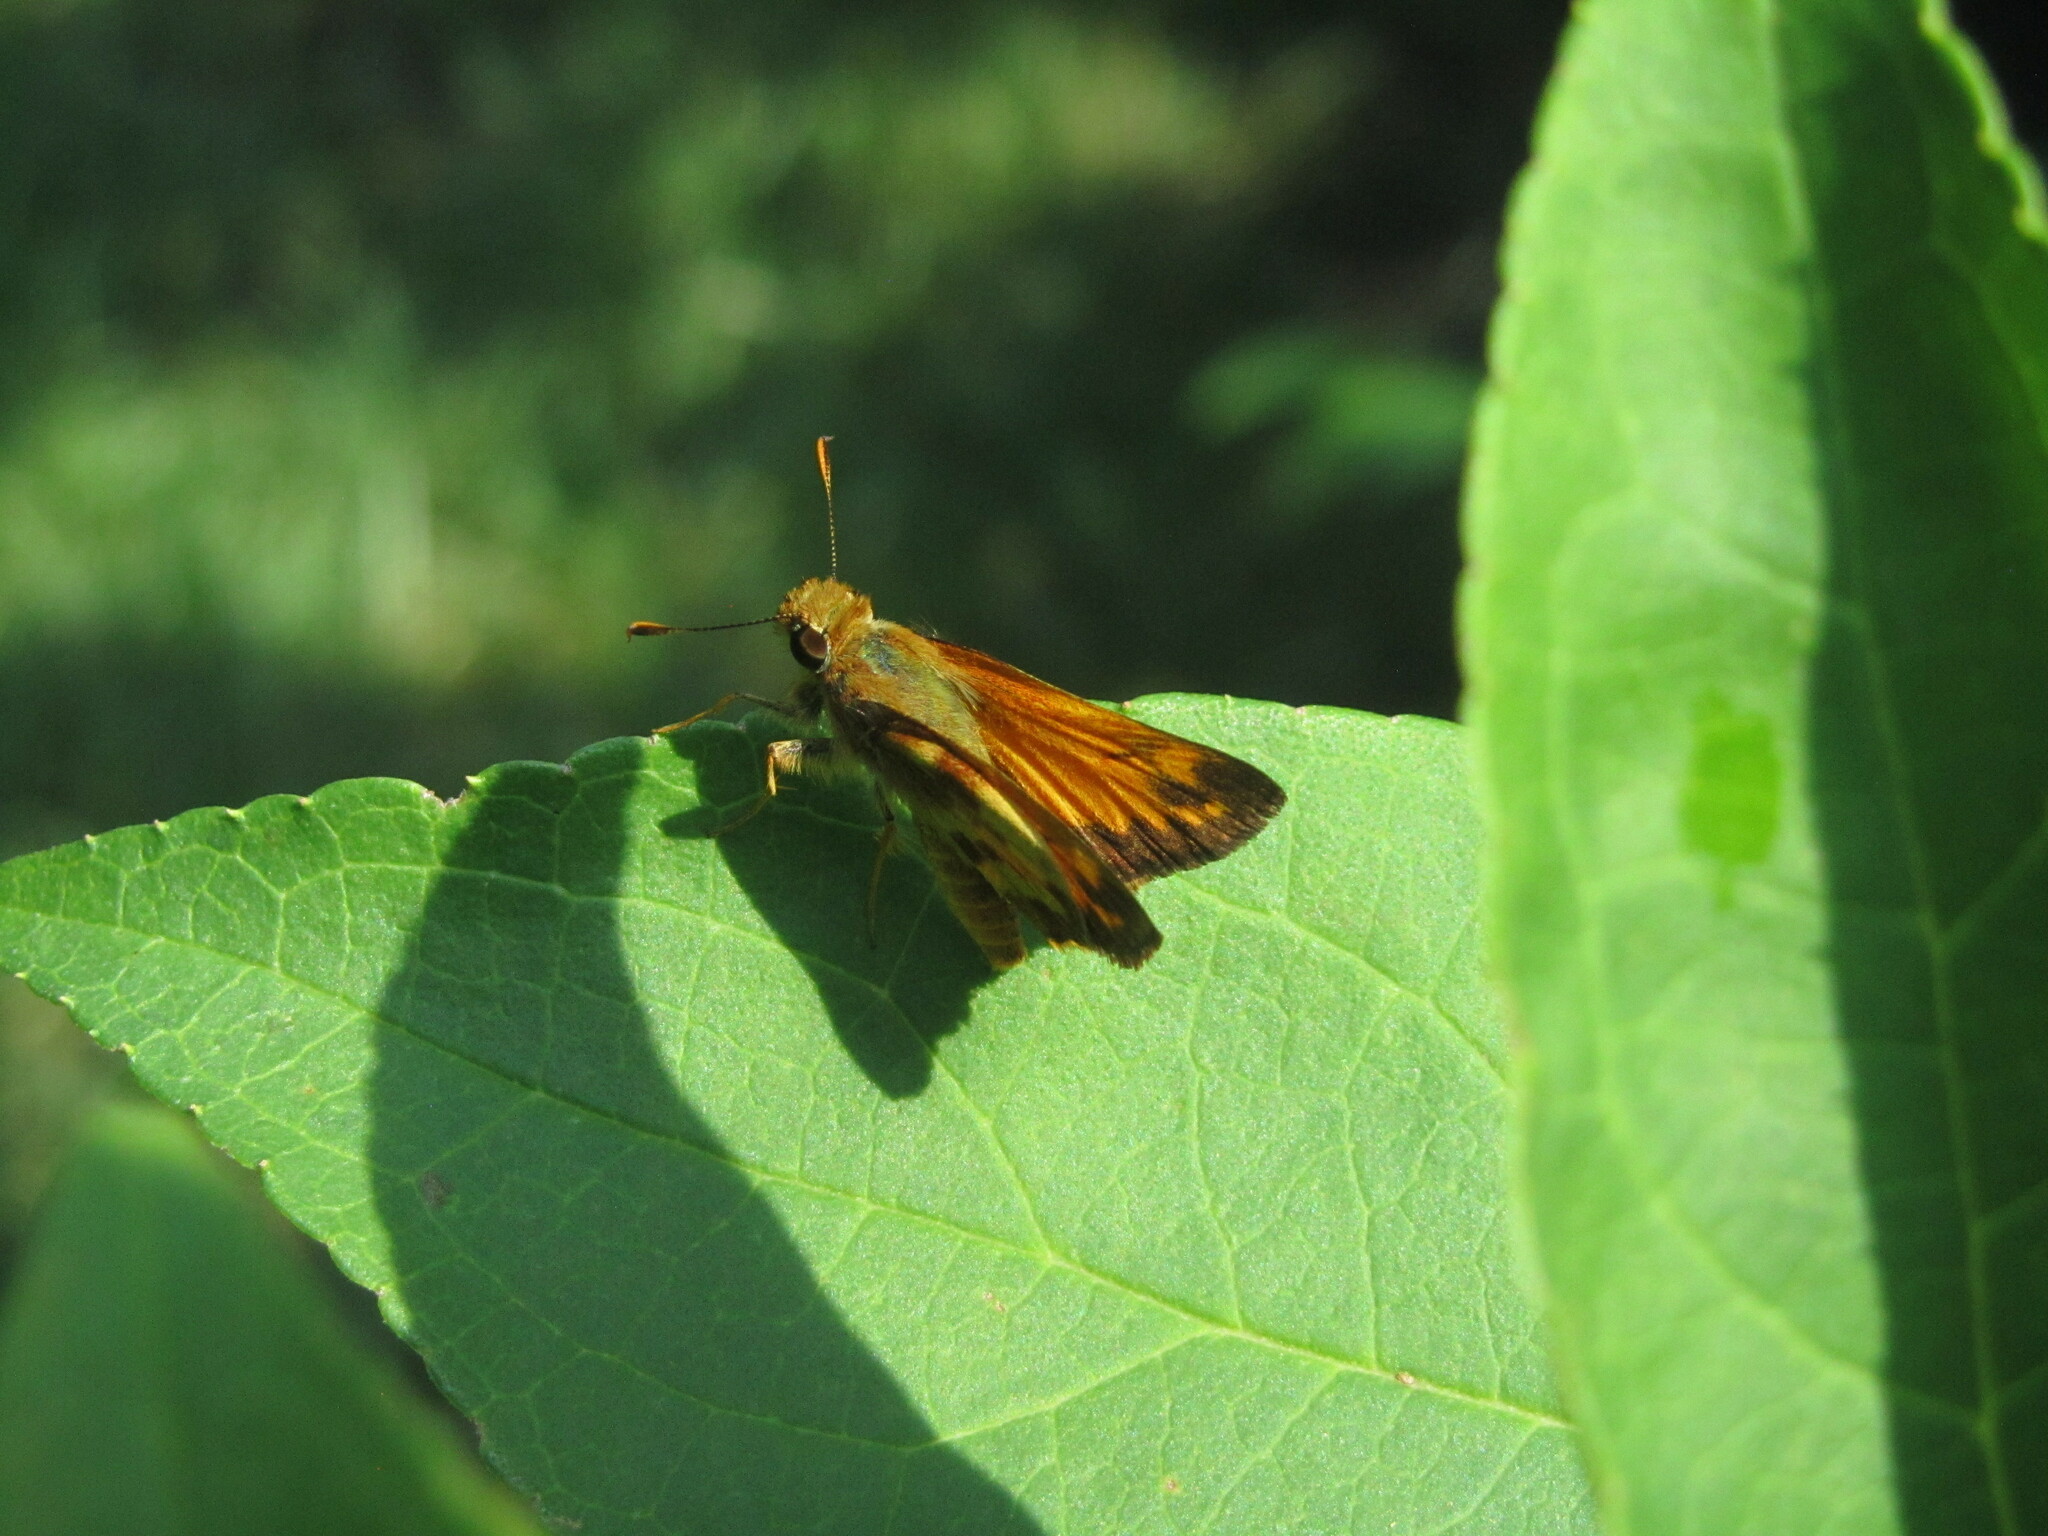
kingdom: Animalia
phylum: Arthropoda
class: Insecta
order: Lepidoptera
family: Hesperiidae
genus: Lon
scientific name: Lon zabulon
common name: Zabulon skipper
